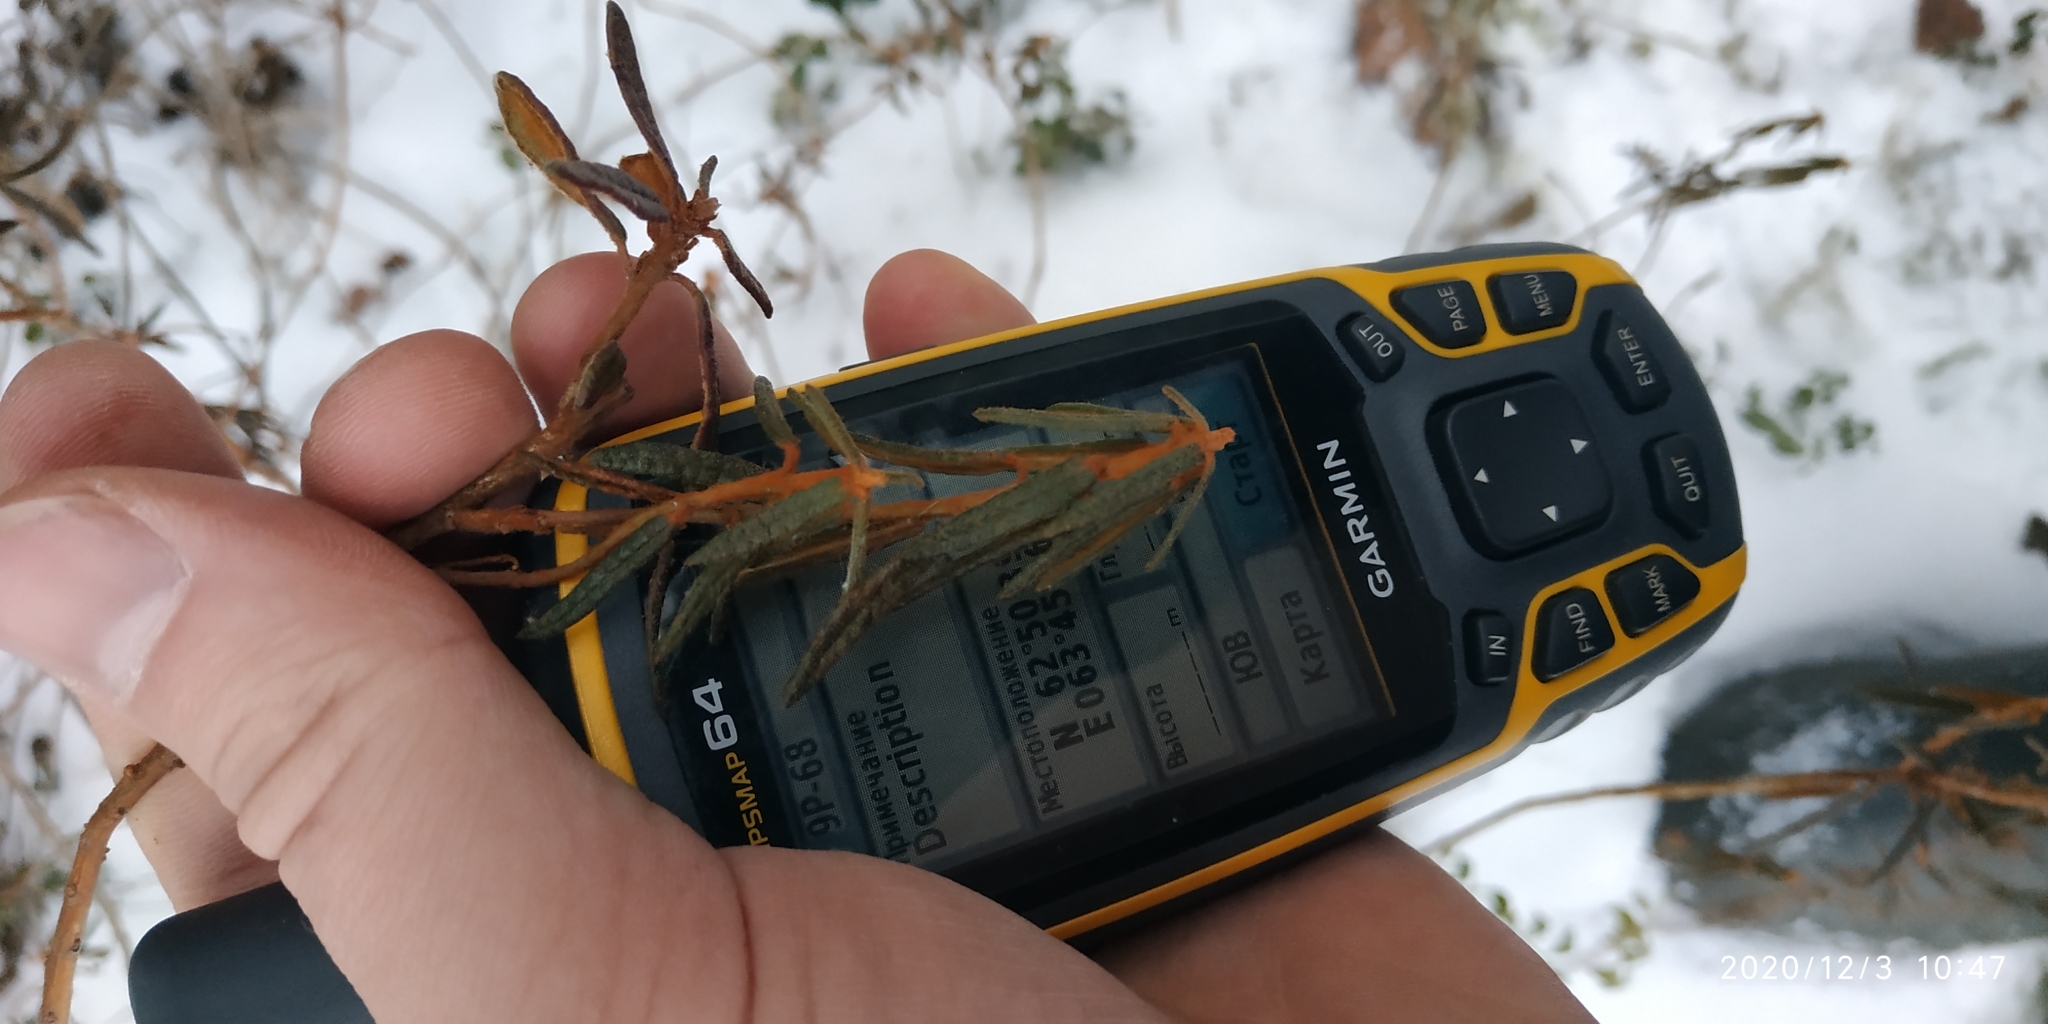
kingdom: Plantae
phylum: Tracheophyta
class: Magnoliopsida
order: Ericales
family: Ericaceae
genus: Rhododendron
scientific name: Rhododendron tomentosum
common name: Marsh labrador tea
